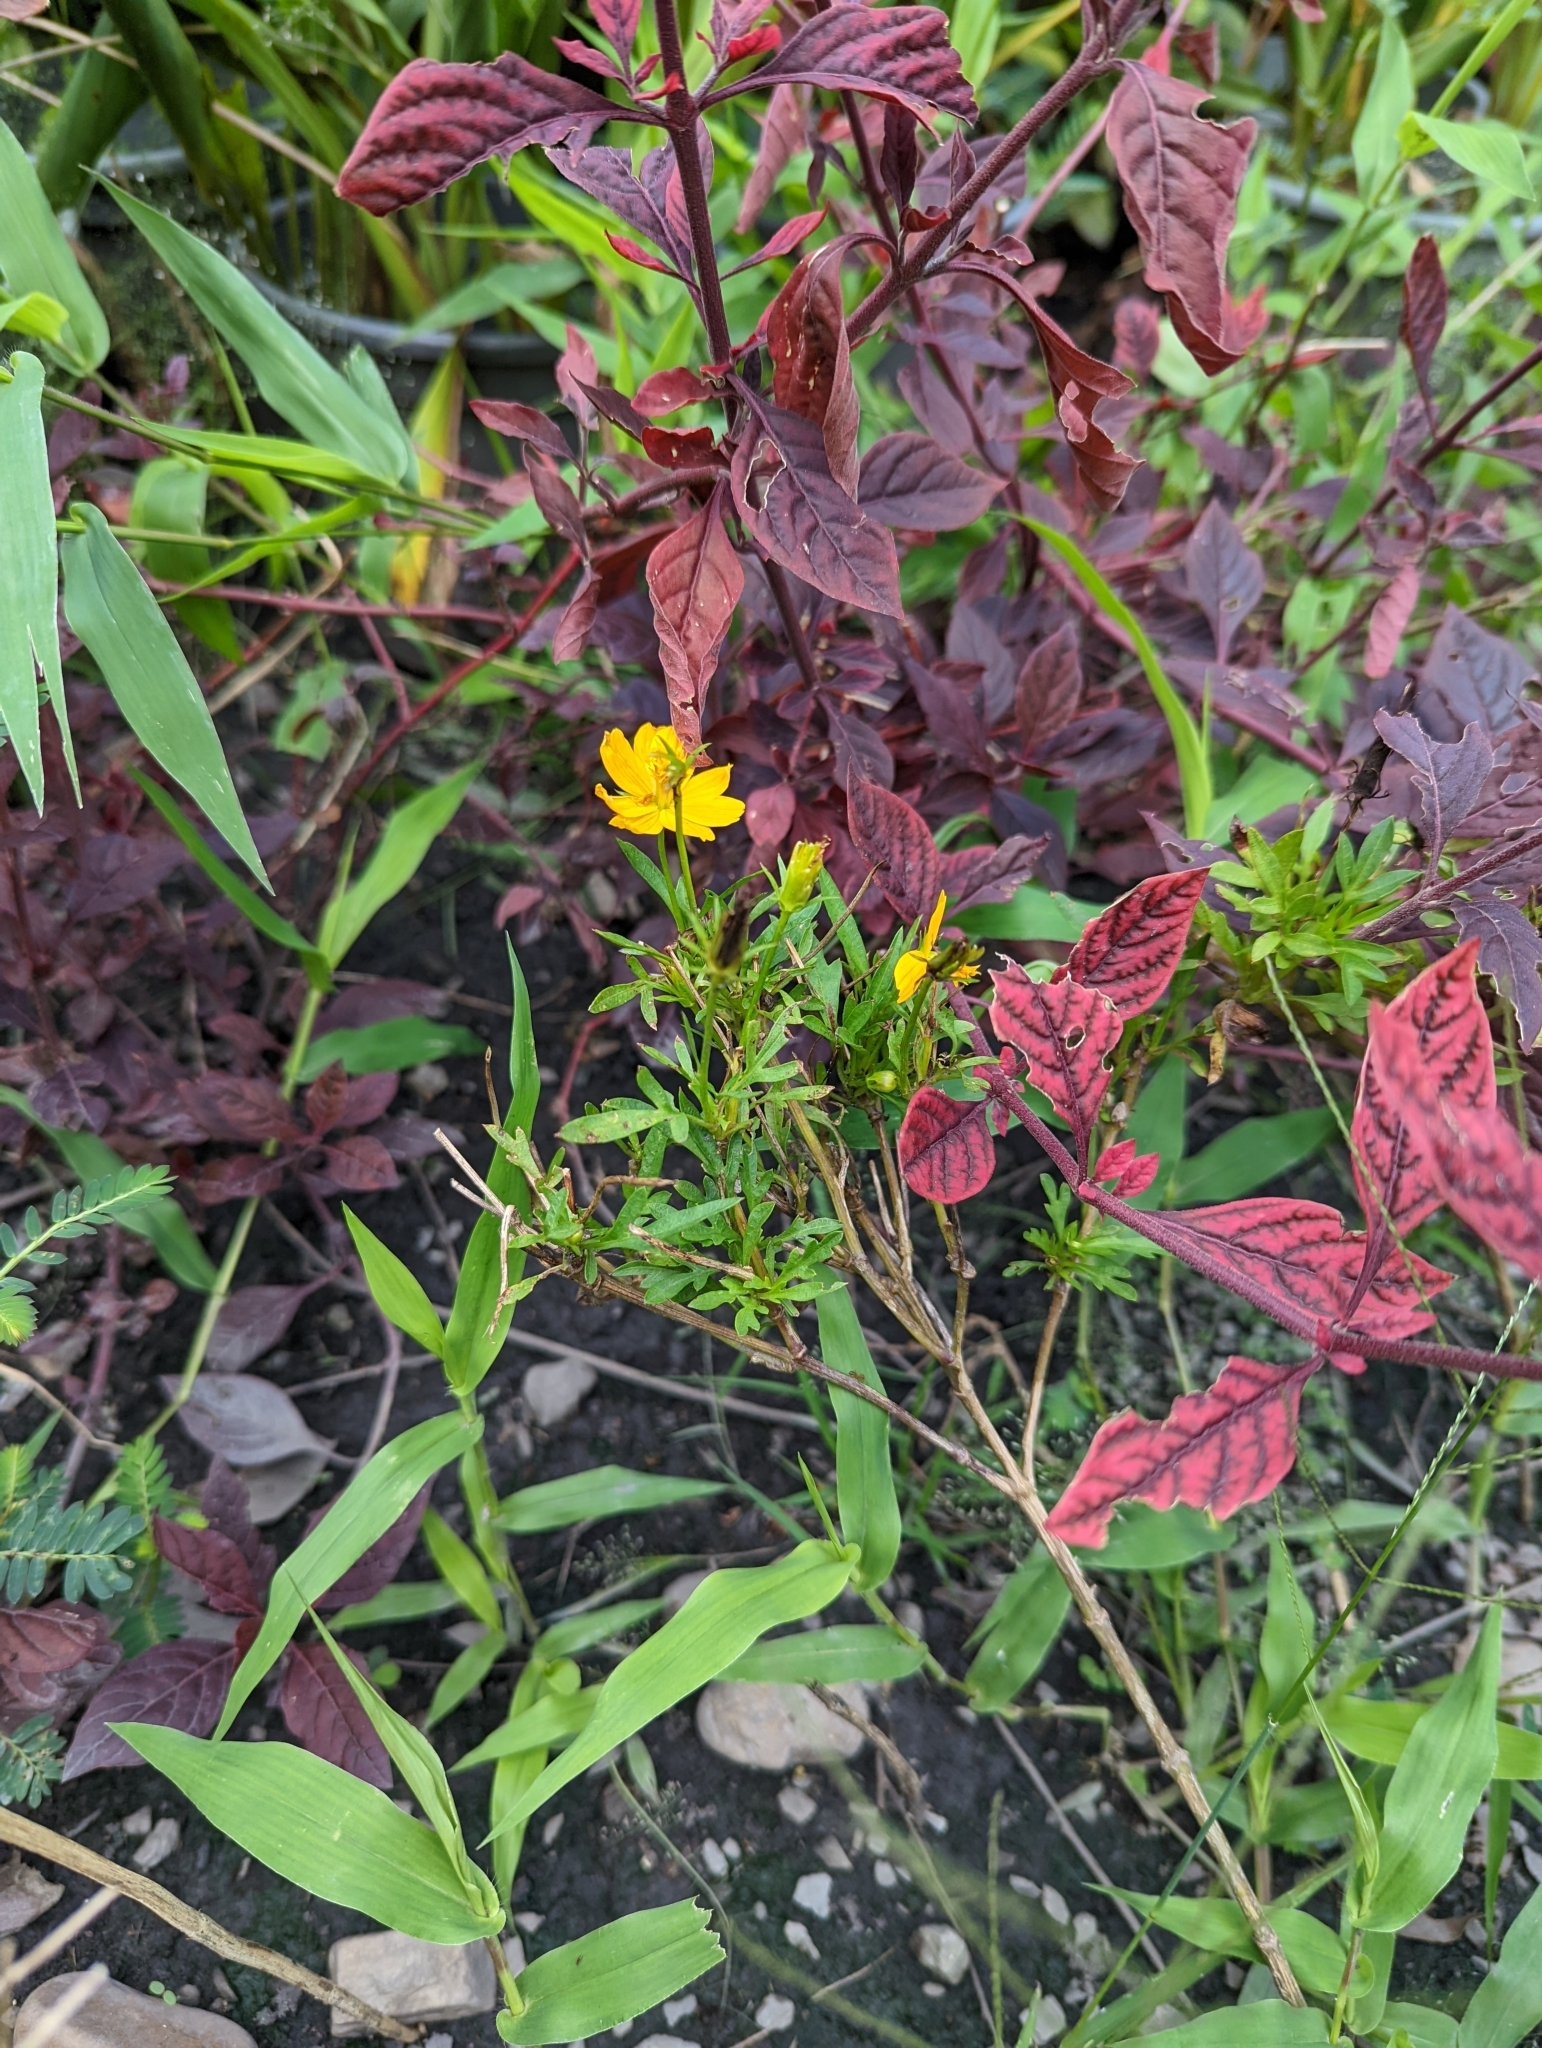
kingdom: Plantae
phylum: Tracheophyta
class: Magnoliopsida
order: Asterales
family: Asteraceae
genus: Cosmos
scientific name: Cosmos sulphureus
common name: Sulphur cosmos
